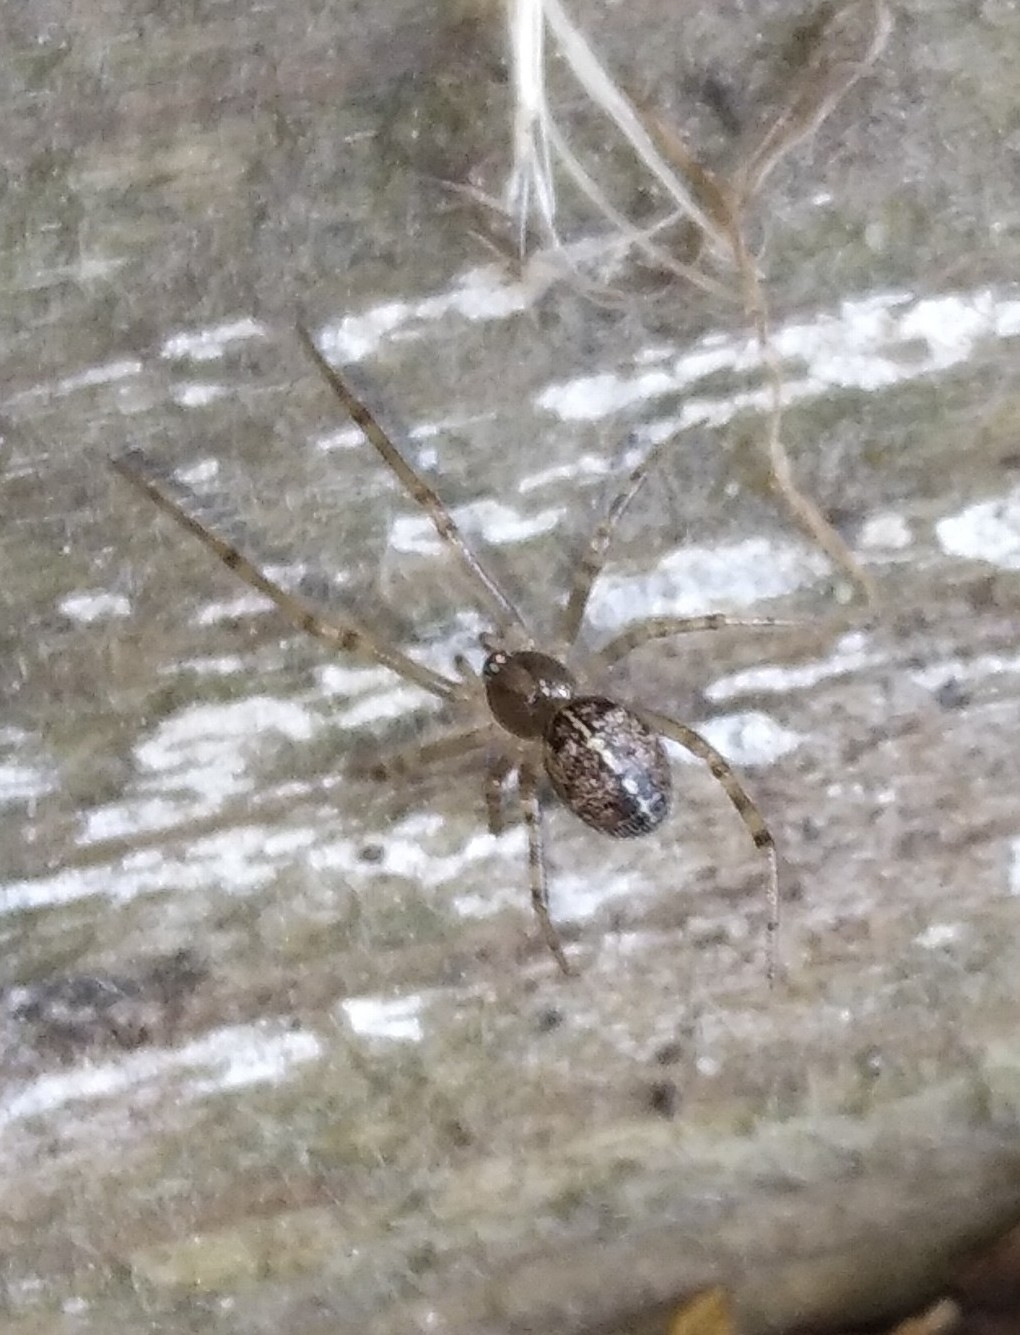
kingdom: Animalia
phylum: Arthropoda
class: Arachnida
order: Araneae
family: Theridiidae
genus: Steatoda
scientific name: Steatoda castanea
